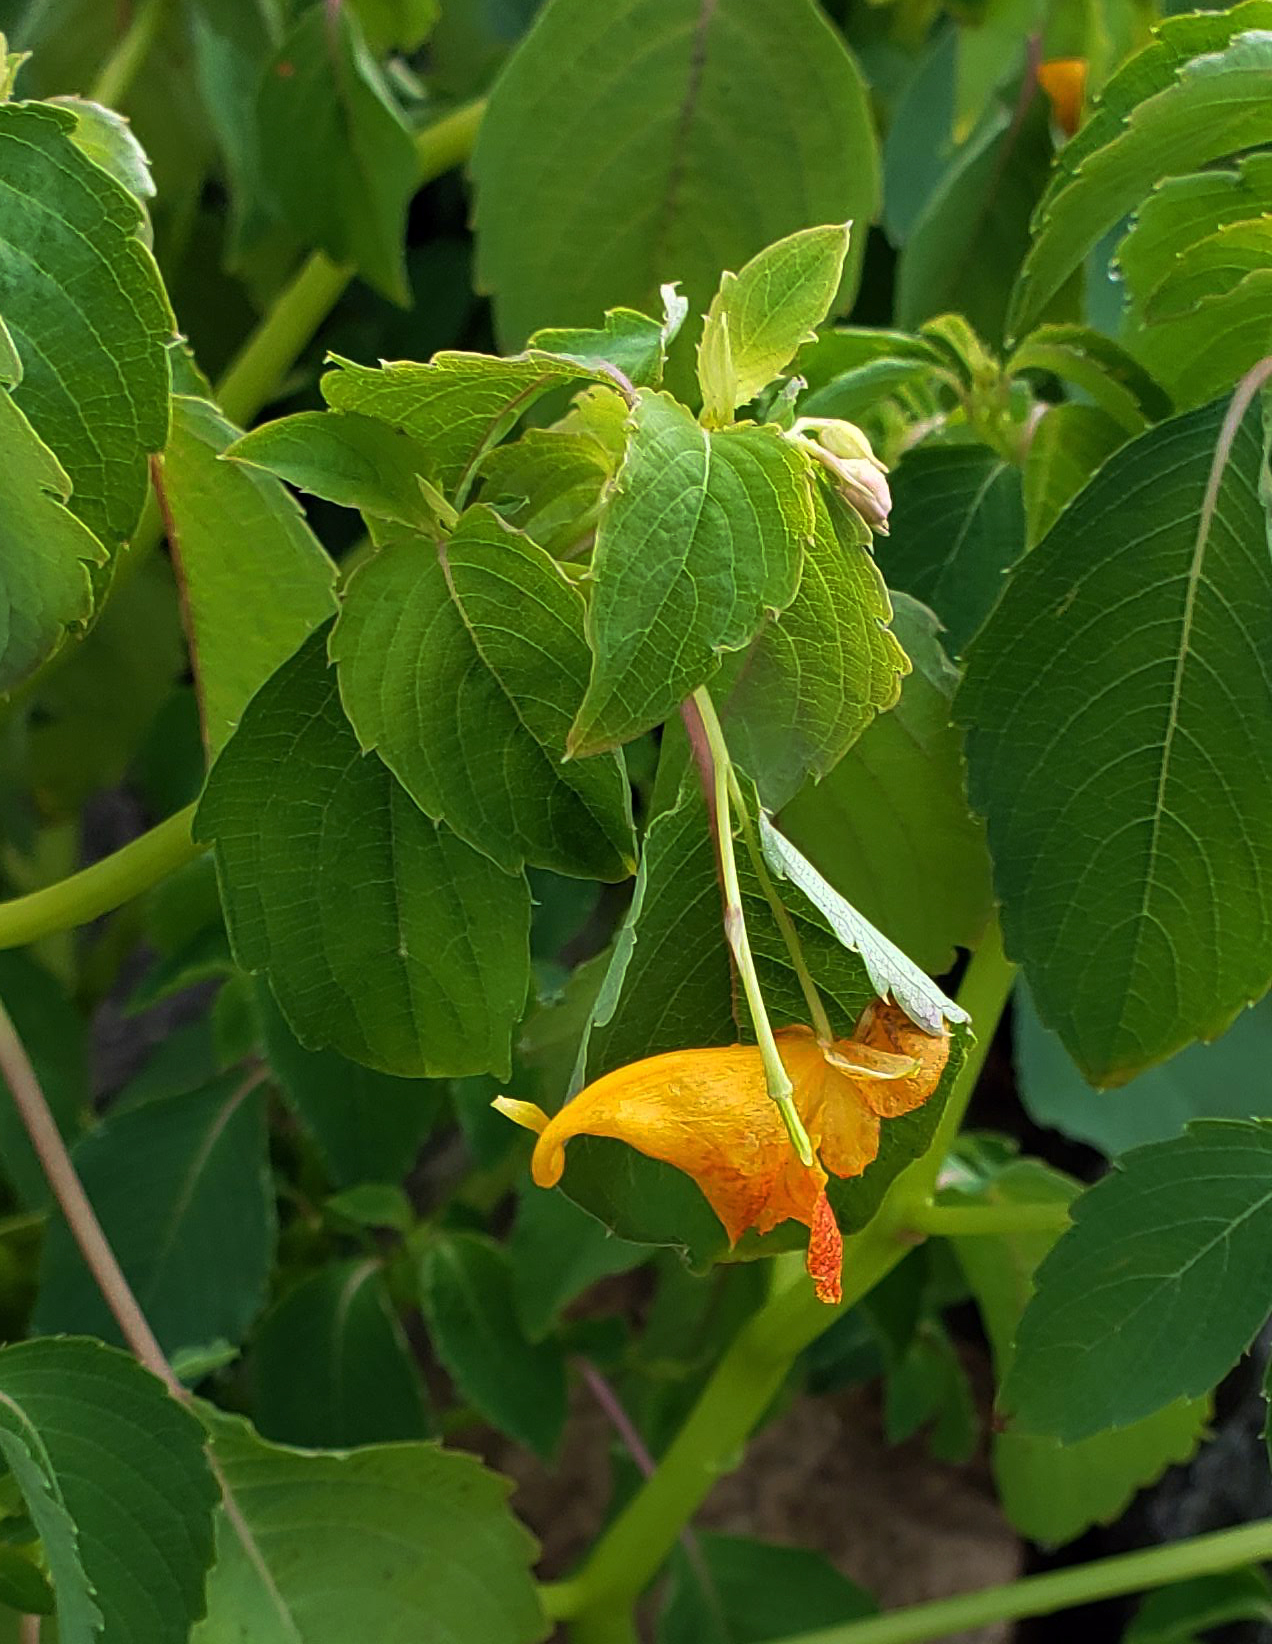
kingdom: Plantae
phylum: Tracheophyta
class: Magnoliopsida
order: Ericales
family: Balsaminaceae
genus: Impatiens
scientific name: Impatiens capensis
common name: Orange balsam
